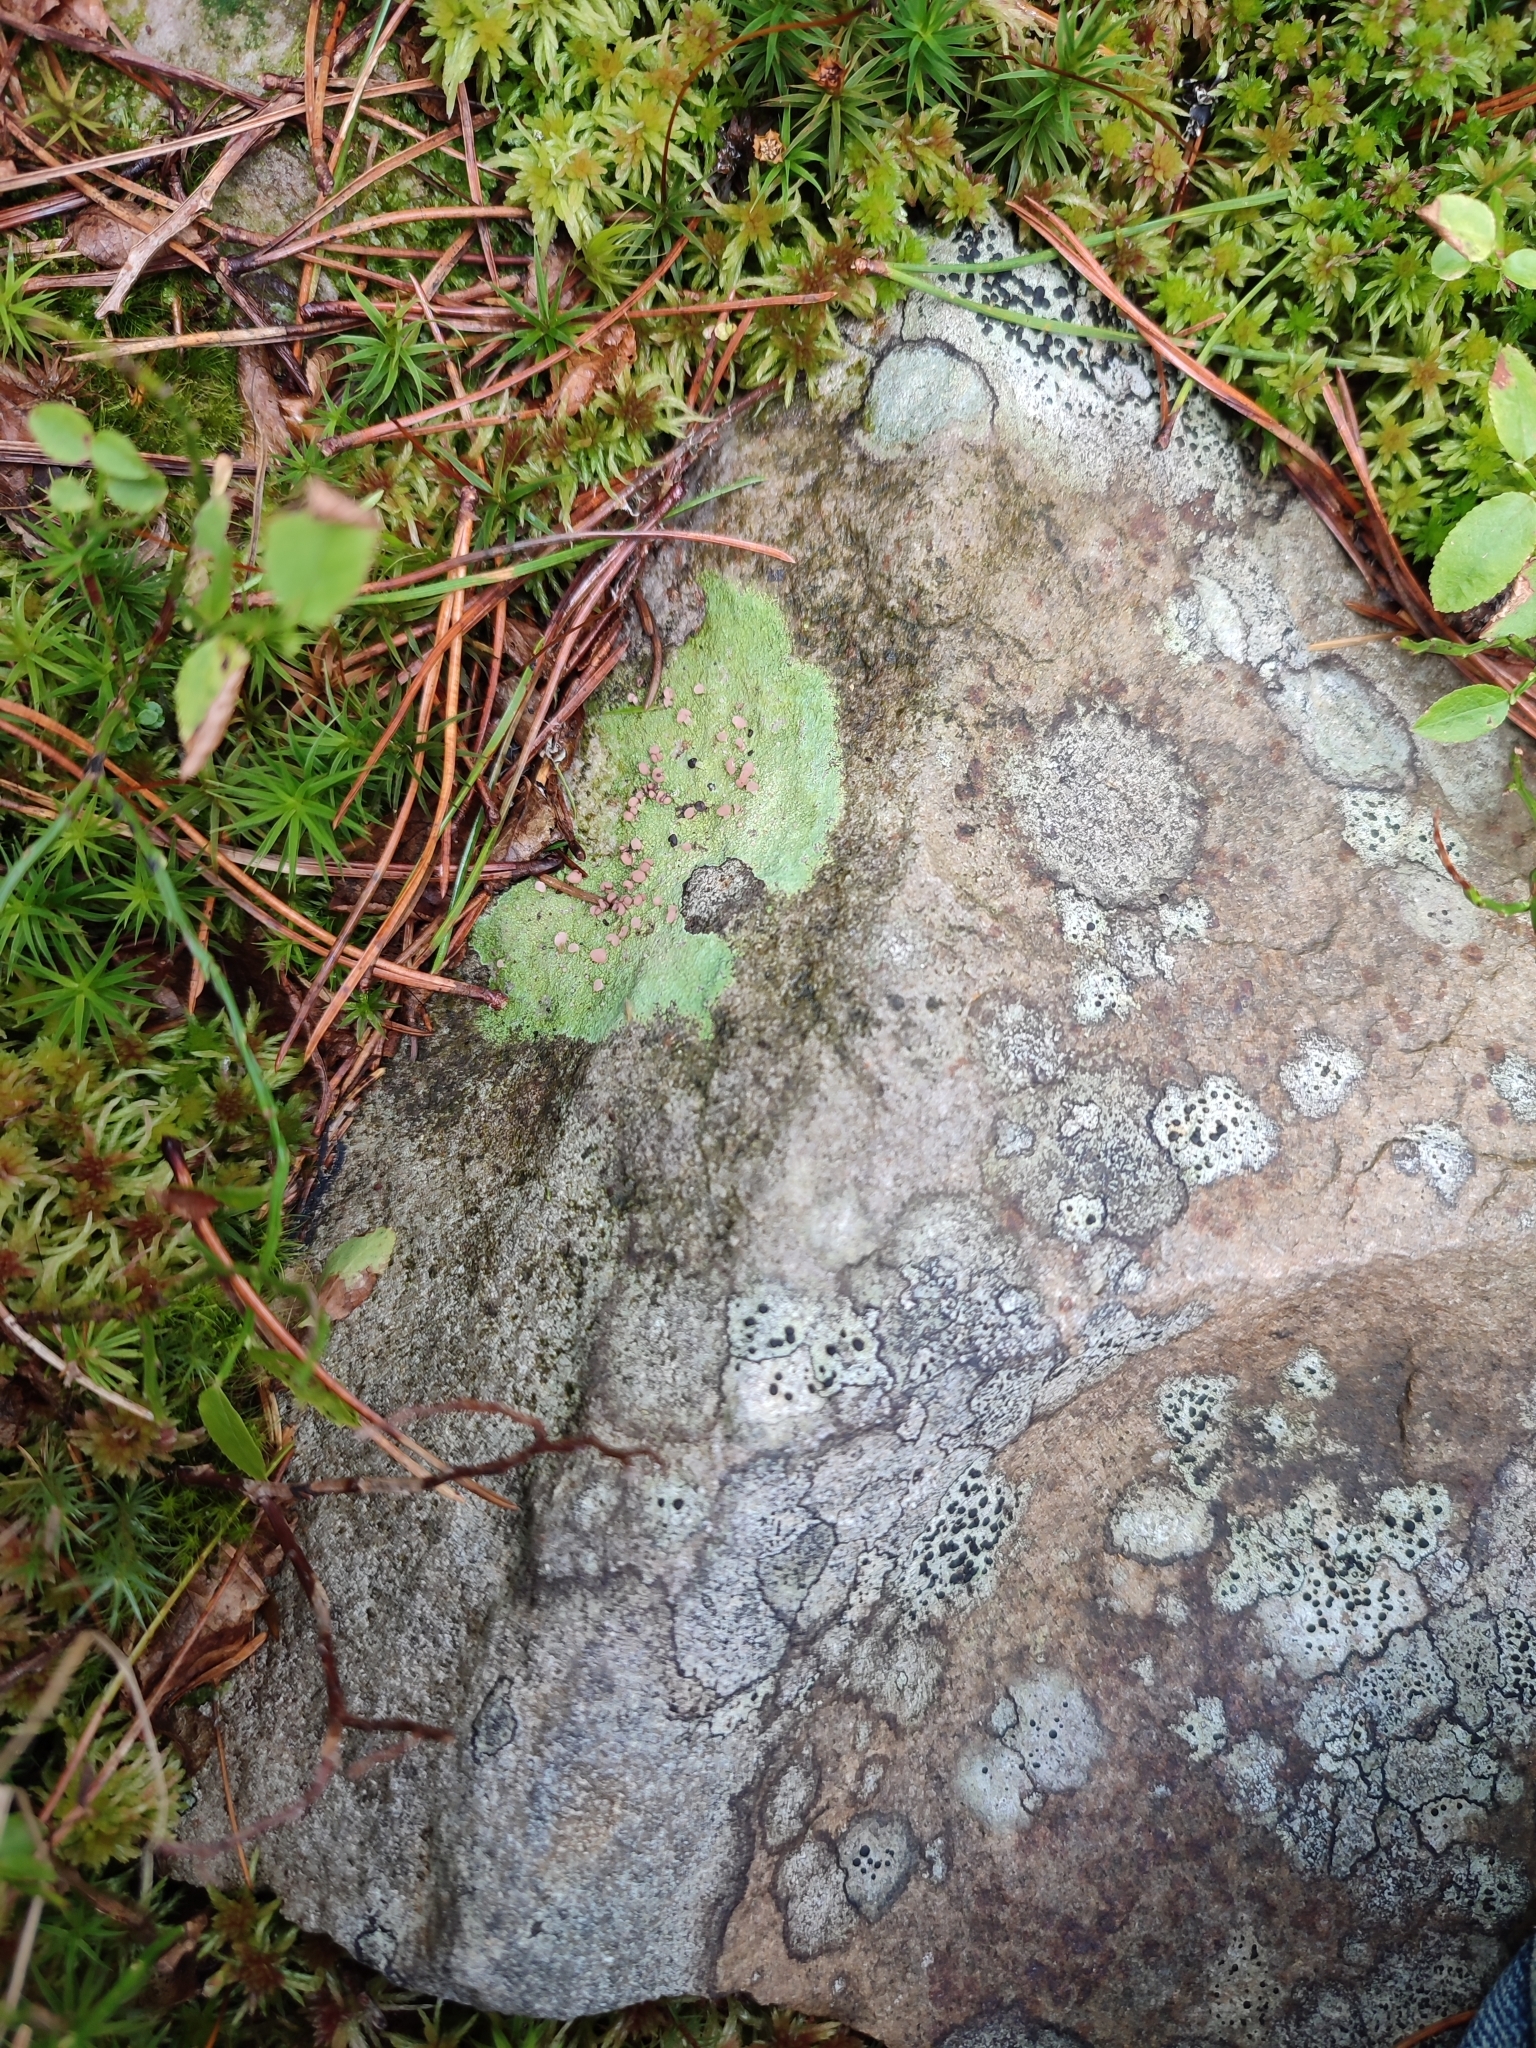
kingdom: Fungi
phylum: Ascomycota
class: Lecanoromycetes
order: Baeomycetales
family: Baeomycetaceae
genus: Baeomyces
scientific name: Baeomyces rufus
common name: Brown beret lichen
